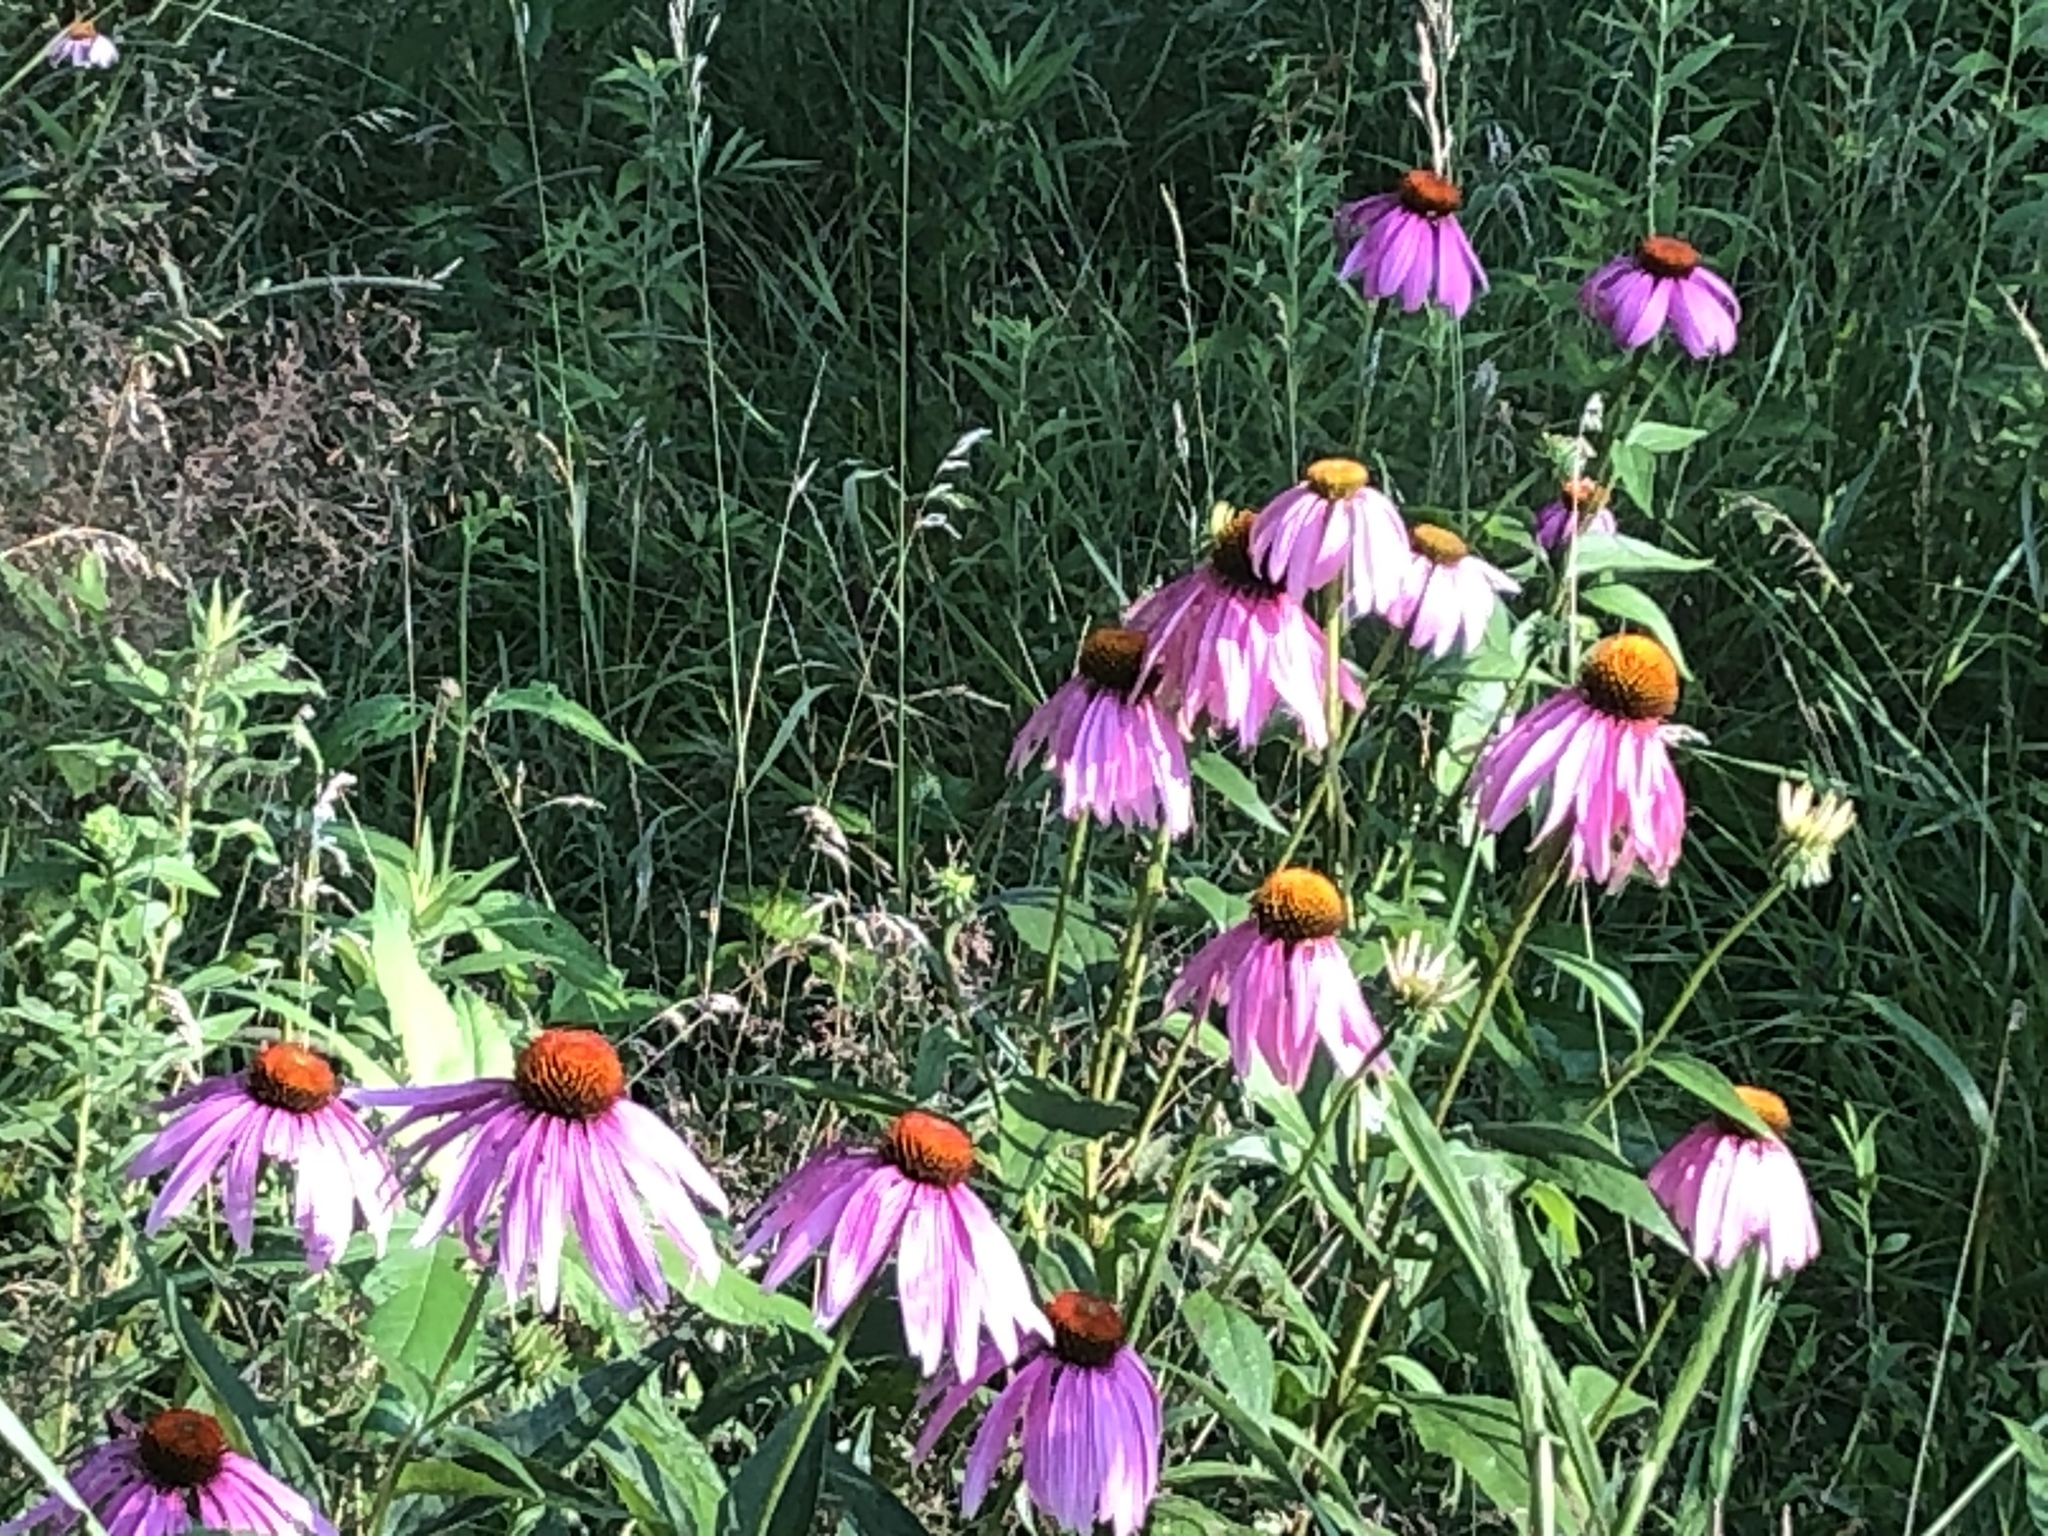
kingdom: Plantae
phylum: Tracheophyta
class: Magnoliopsida
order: Asterales
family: Asteraceae
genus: Echinacea
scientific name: Echinacea purpurea
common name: Broad-leaved purple coneflower
